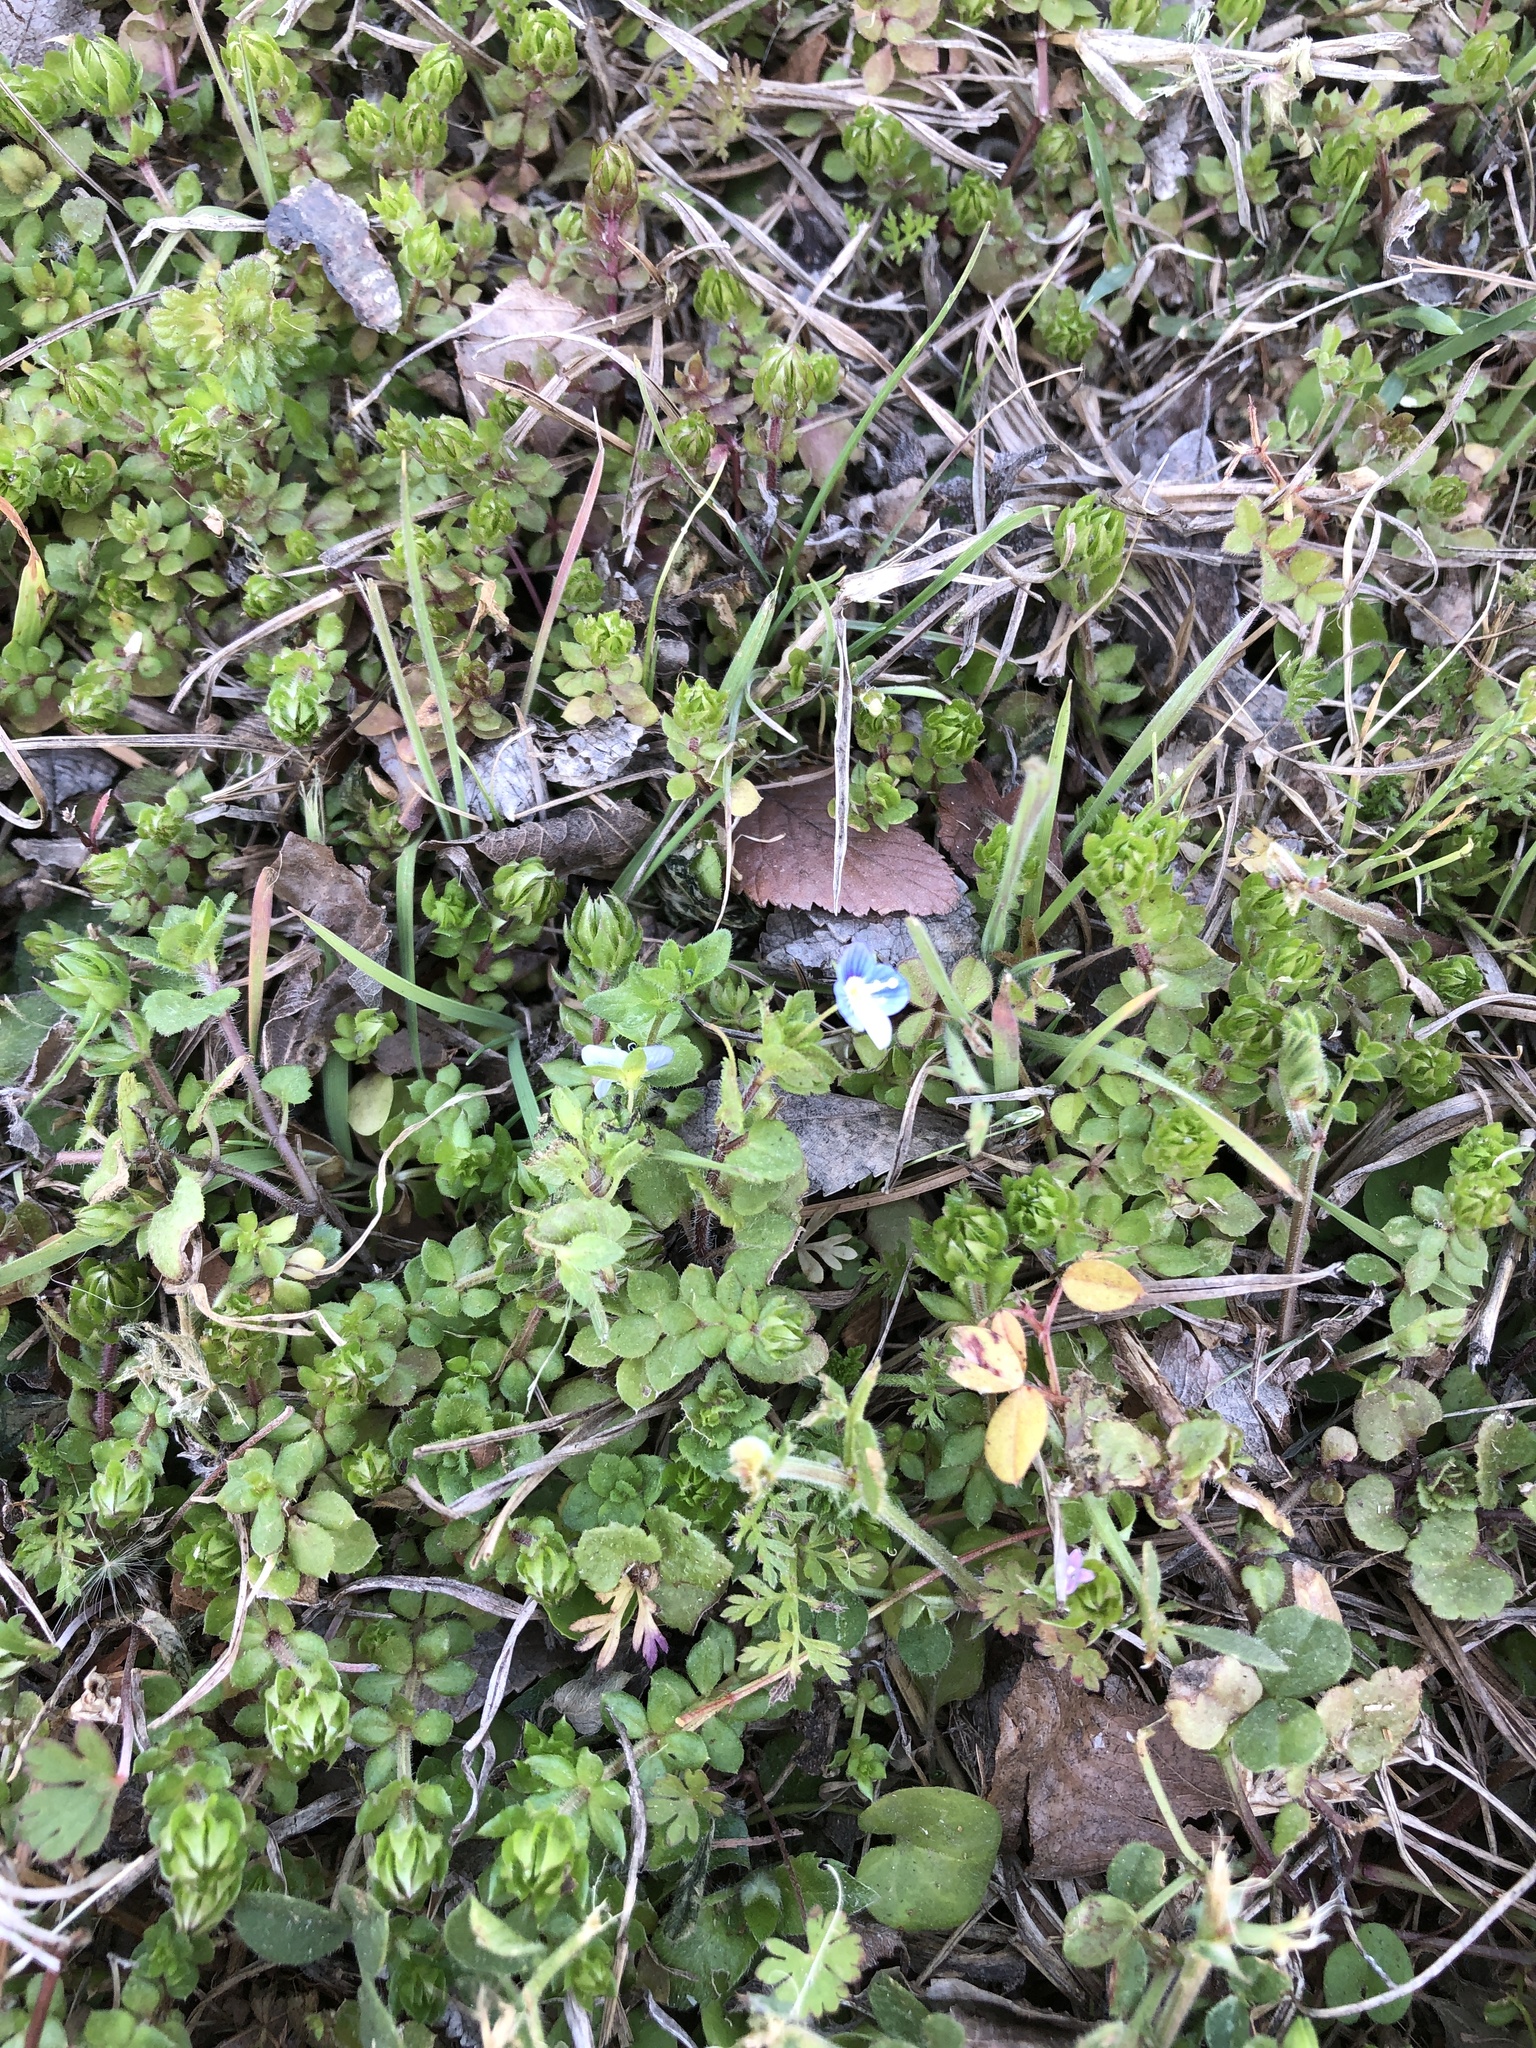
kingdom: Plantae
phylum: Tracheophyta
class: Magnoliopsida
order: Lamiales
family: Plantaginaceae
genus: Veronica
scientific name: Veronica persica
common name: Common field-speedwell
